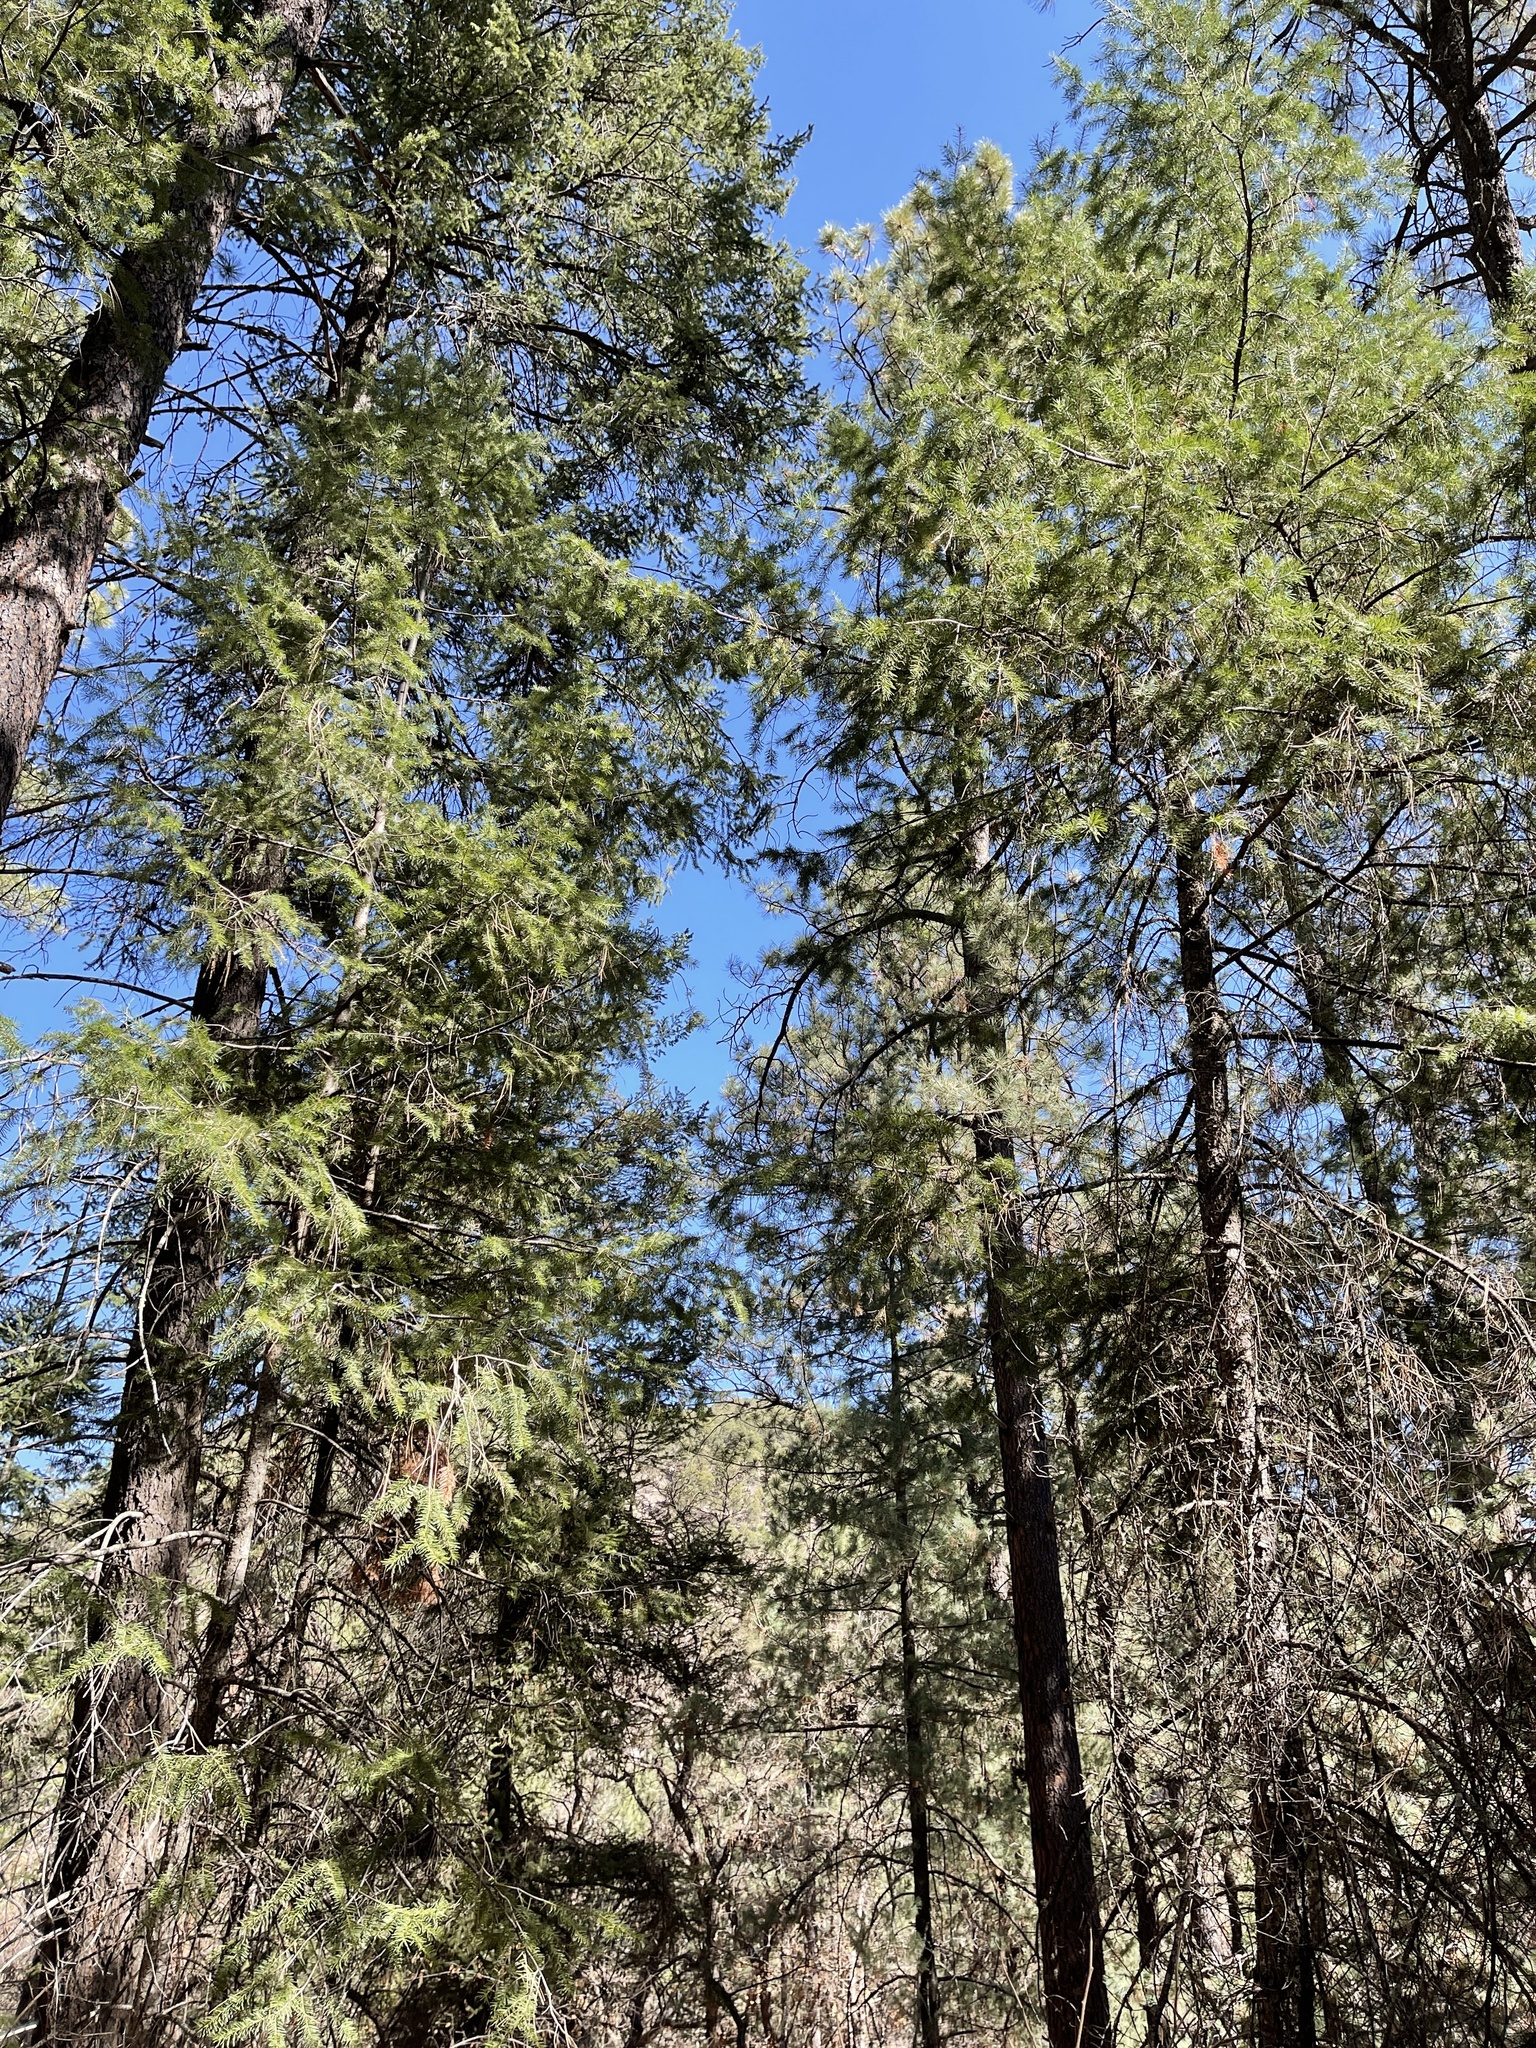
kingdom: Plantae
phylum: Tracheophyta
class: Pinopsida
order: Pinales
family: Pinaceae
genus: Pseudotsuga
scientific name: Pseudotsuga menziesii
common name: Douglas fir
